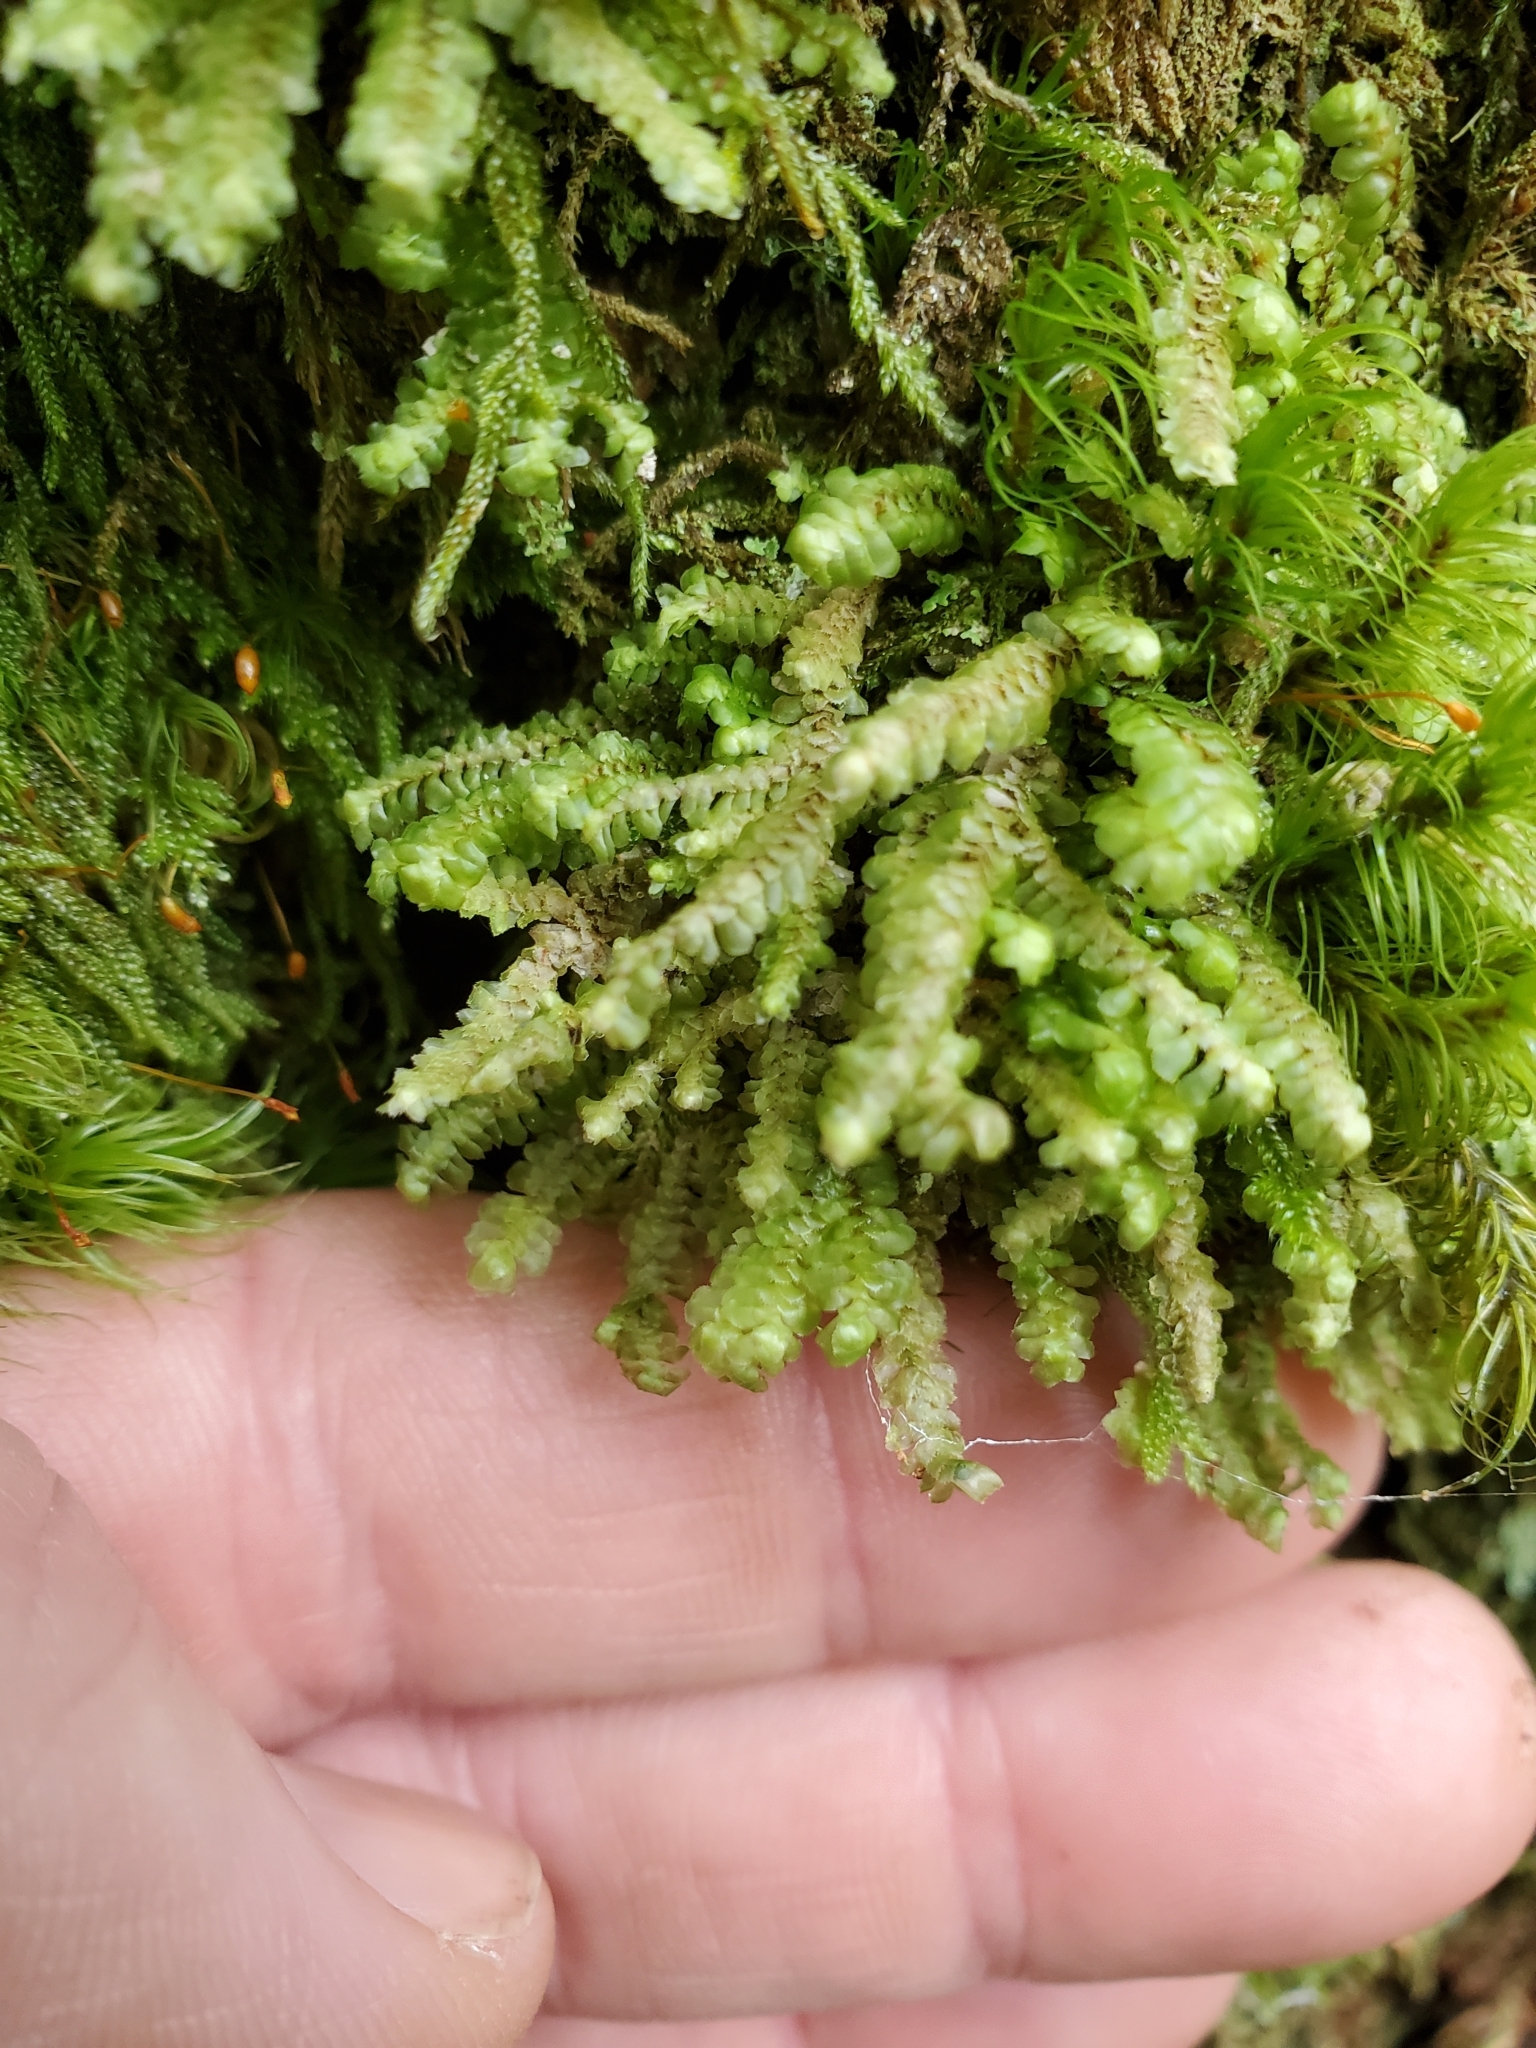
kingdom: Plantae
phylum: Marchantiophyta
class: Jungermanniopsida
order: Jungermanniales
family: Scapaniaceae
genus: Scapania
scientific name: Scapania bolanderi
